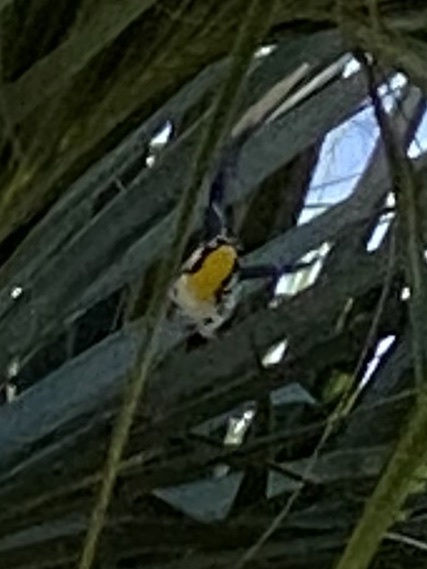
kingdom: Animalia
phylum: Chordata
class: Aves
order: Passeriformes
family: Parulidae
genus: Setophaga
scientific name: Setophaga dominica
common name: Yellow-throated warbler
